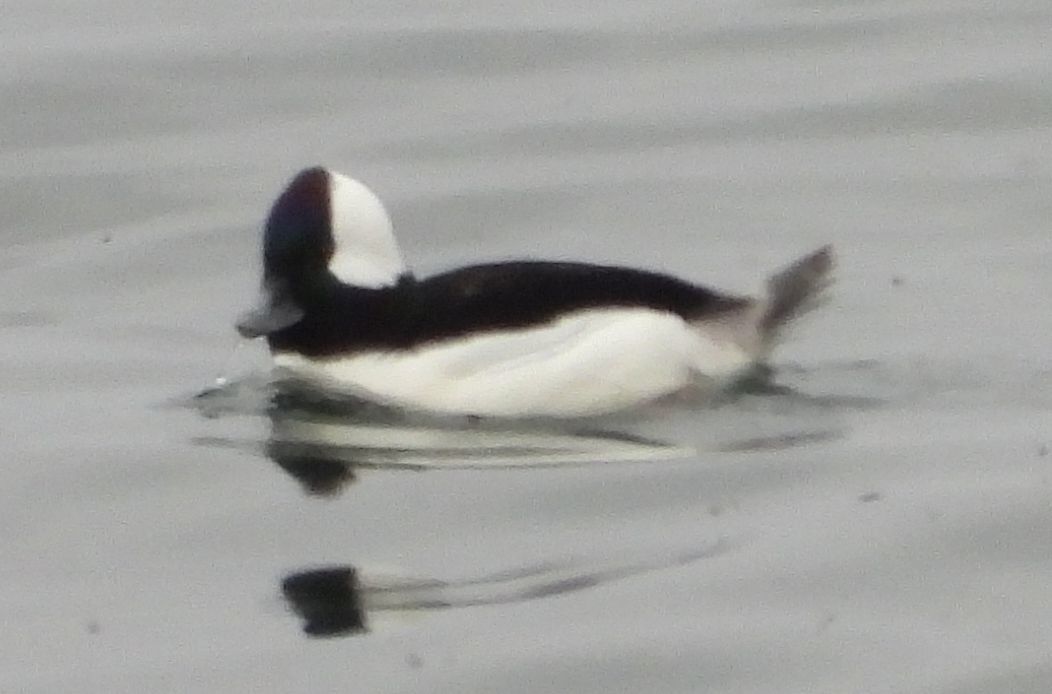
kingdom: Animalia
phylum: Chordata
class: Aves
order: Anseriformes
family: Anatidae
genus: Bucephala
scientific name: Bucephala albeola
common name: Bufflehead
